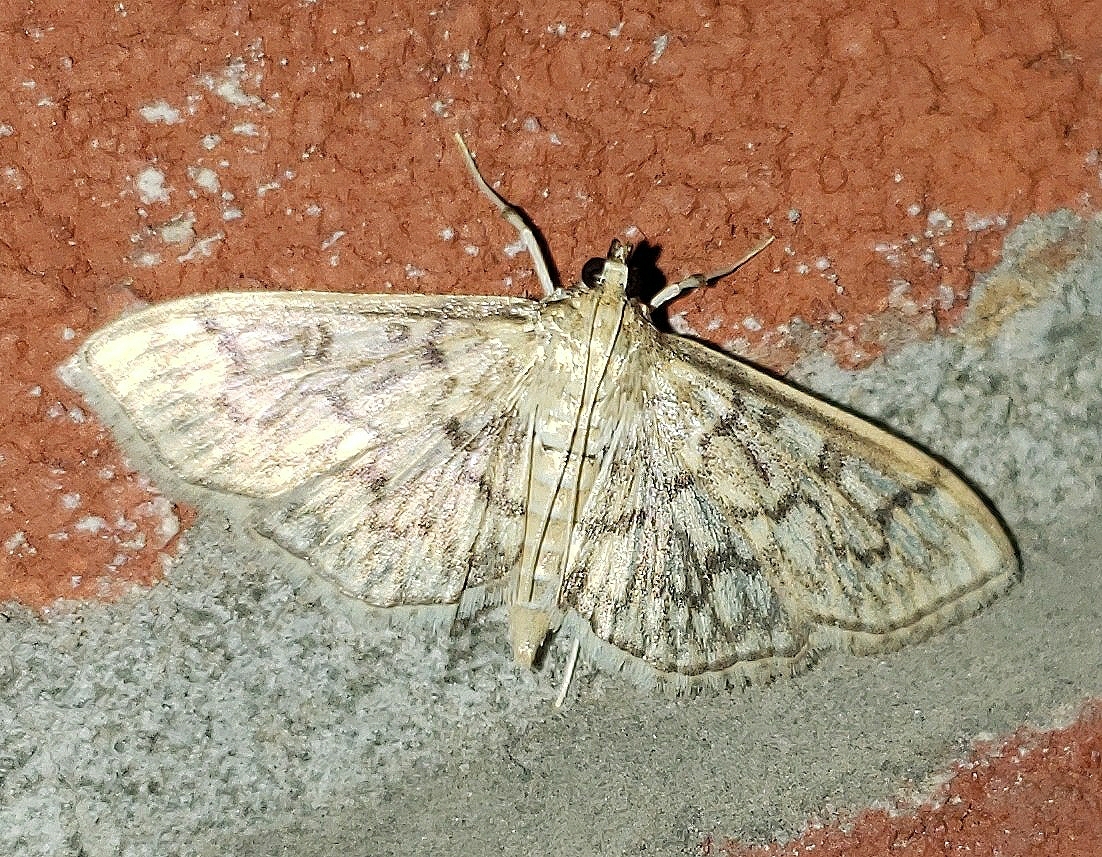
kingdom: Animalia
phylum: Arthropoda
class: Insecta
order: Lepidoptera
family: Crambidae
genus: Herpetogramma
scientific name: Herpetogramma pertextalis
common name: Bold-feathered grass moth
